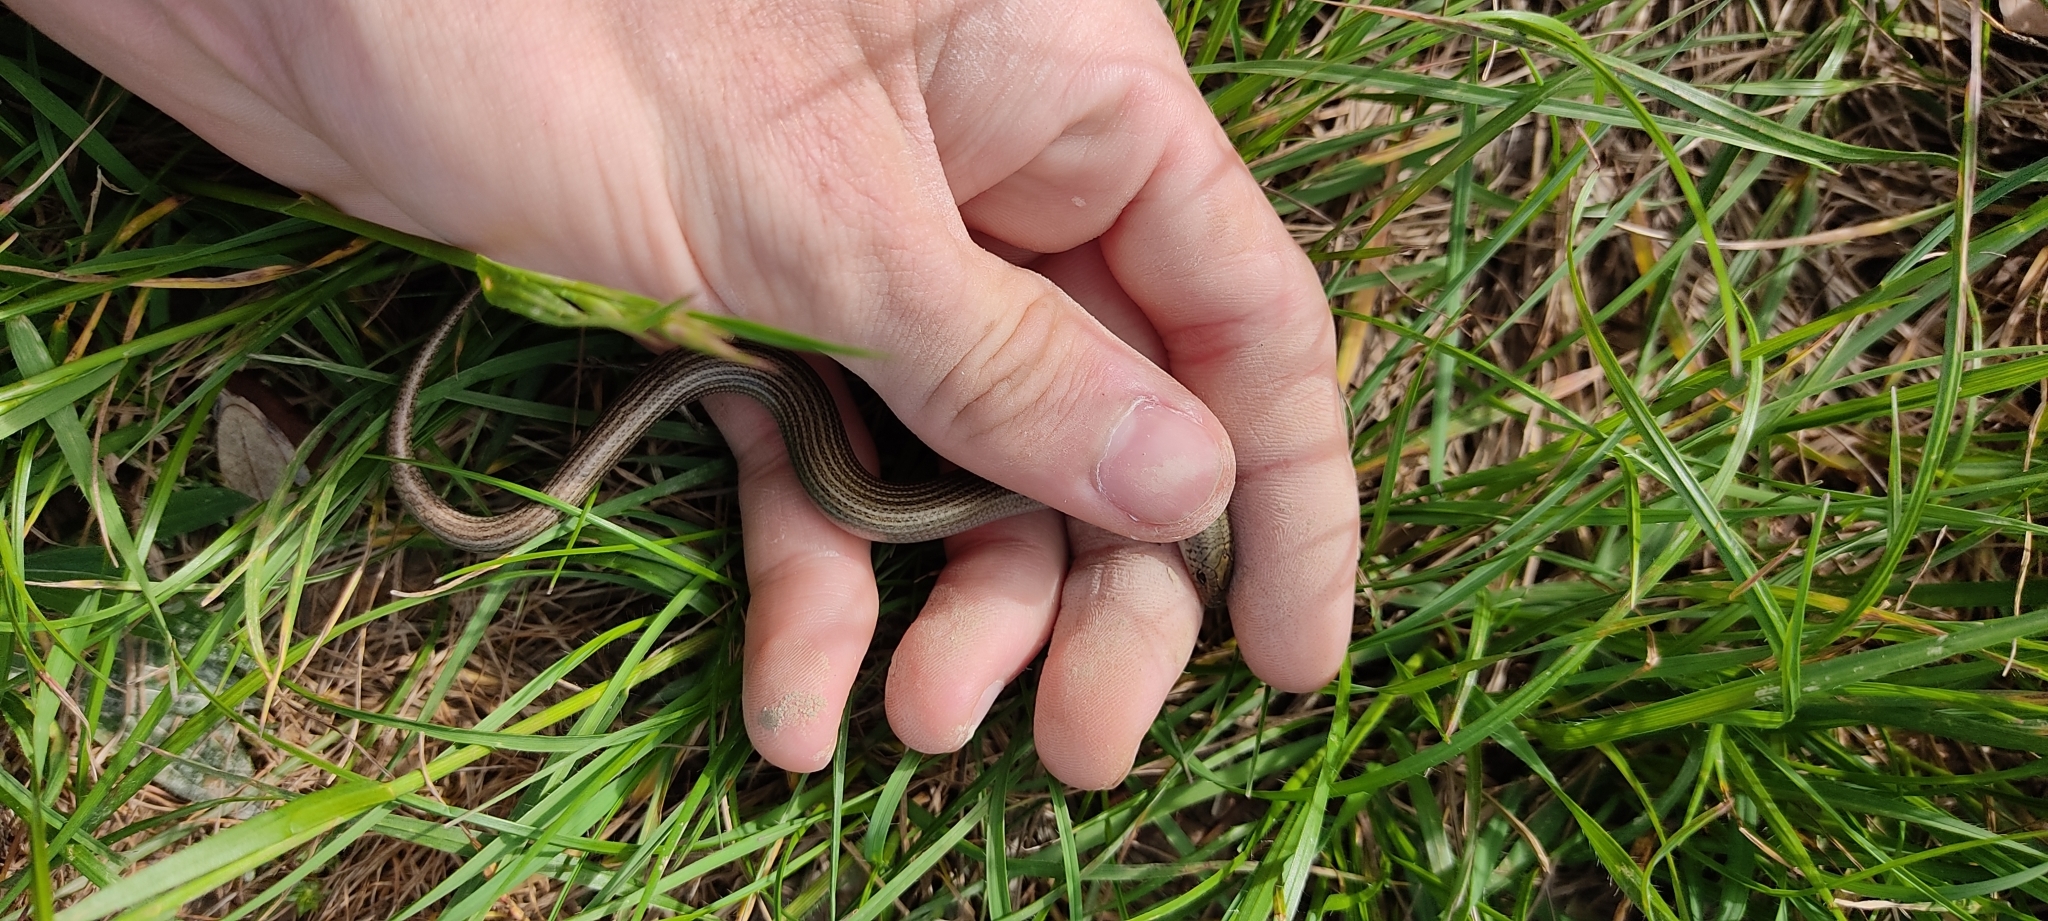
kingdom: Animalia
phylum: Chordata
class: Squamata
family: Scincidae
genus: Chalcides
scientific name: Chalcides striatus
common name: Western (or iberian) three-toed skink
